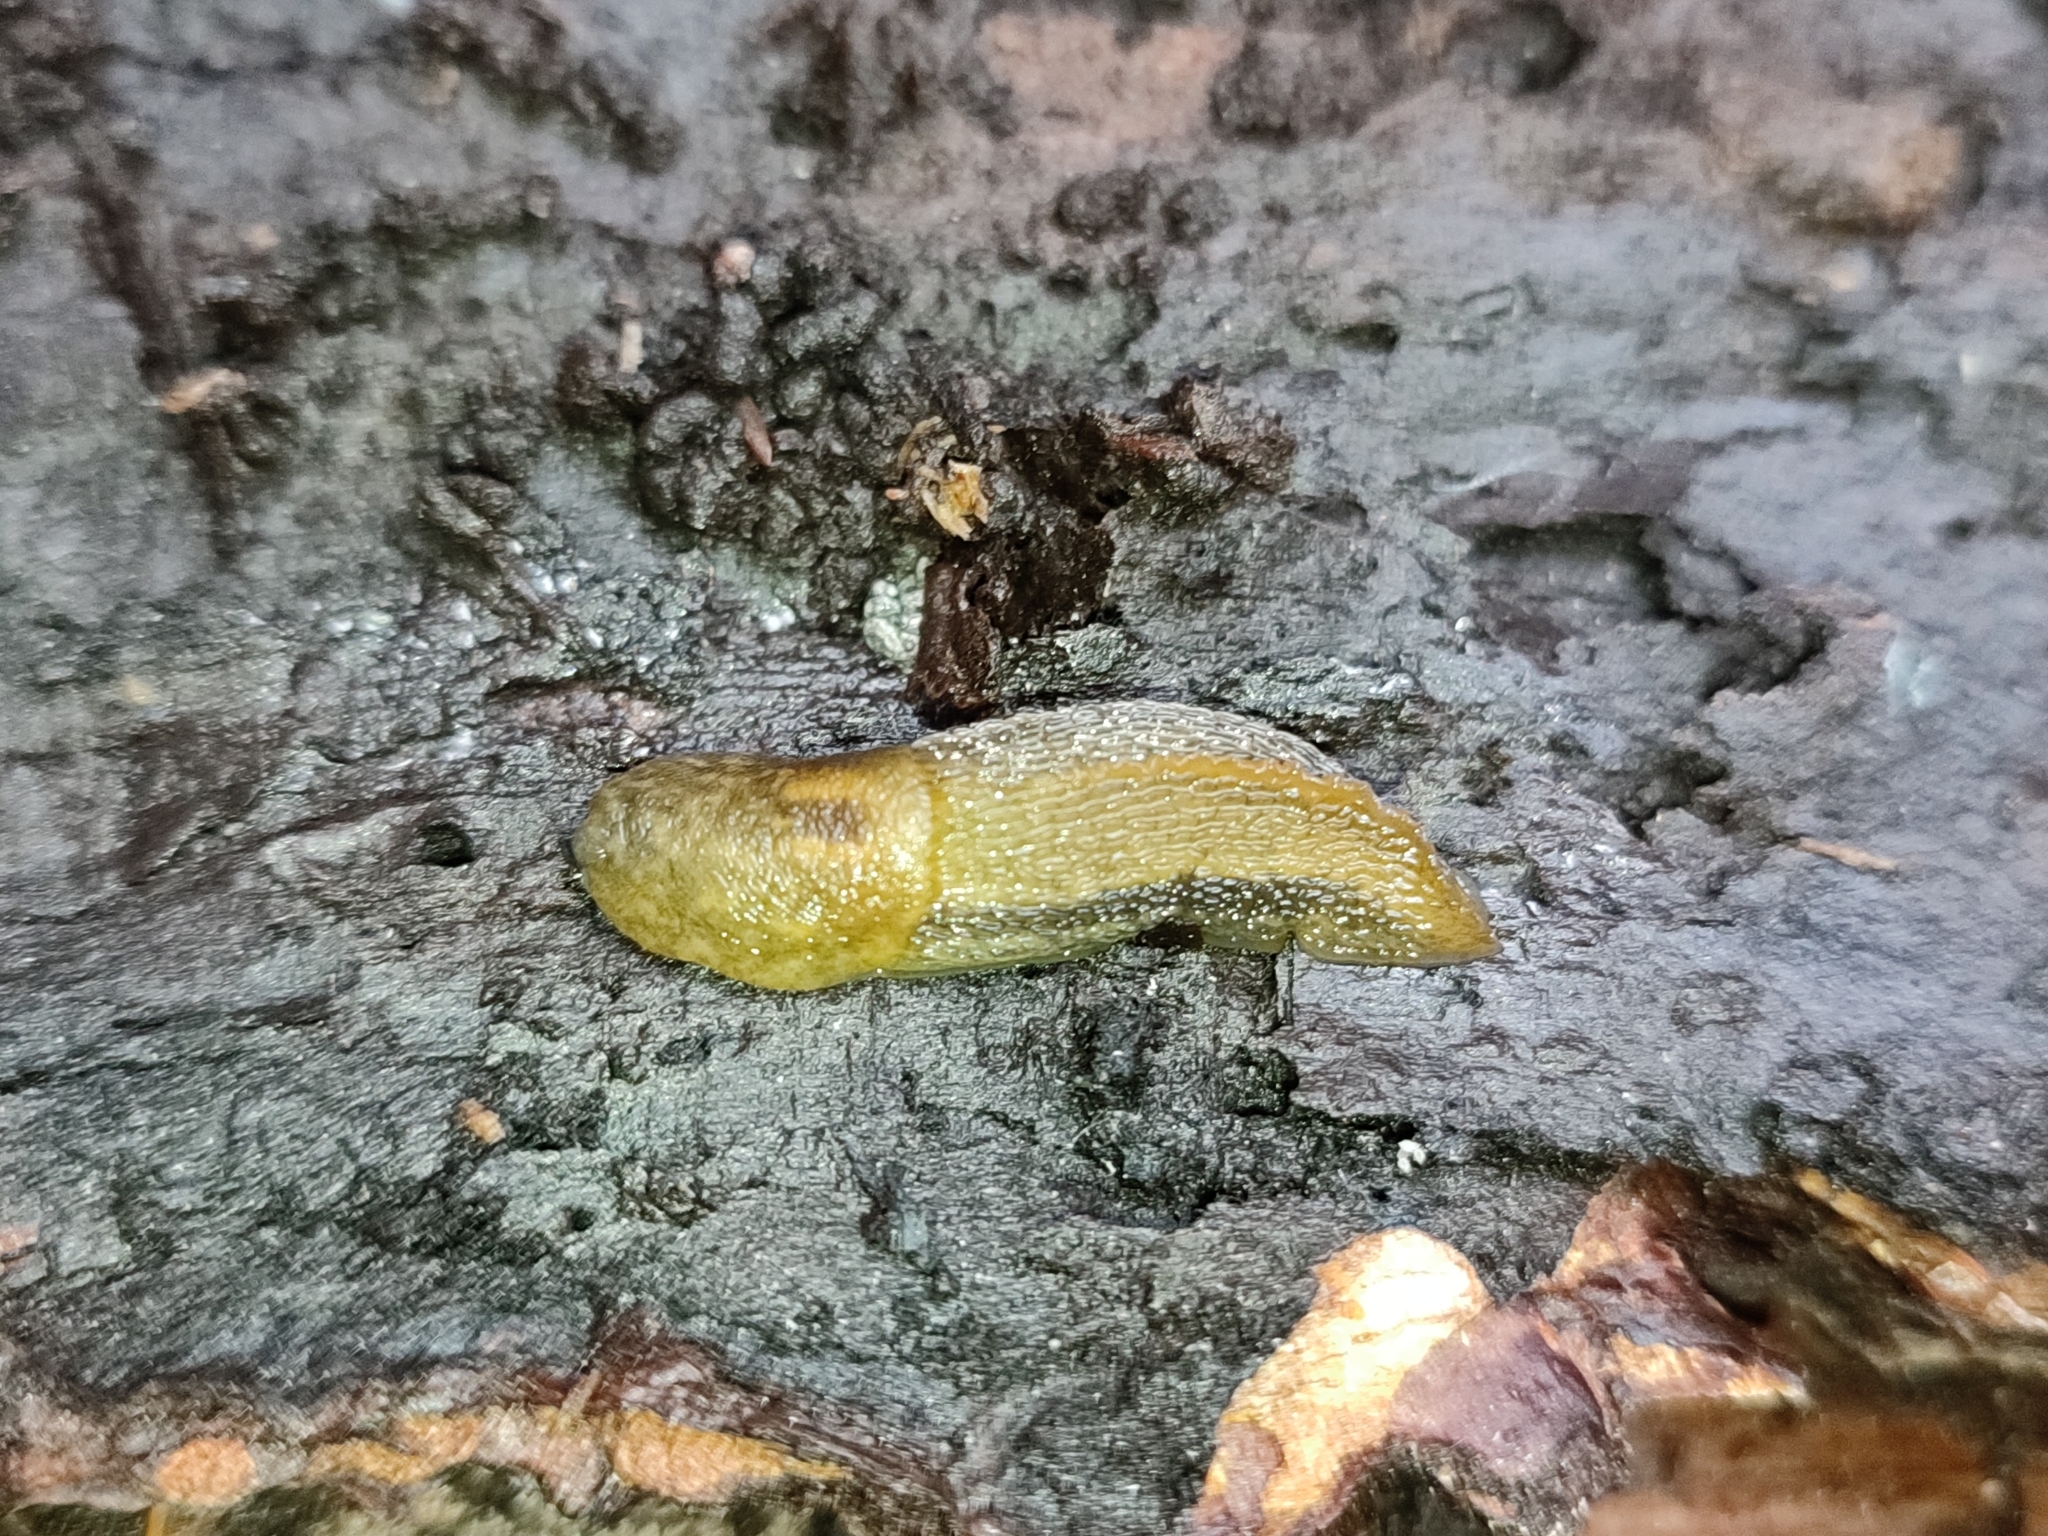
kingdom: Animalia
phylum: Mollusca
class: Gastropoda
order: Stylommatophora
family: Limacidae
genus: Bielzia
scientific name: Bielzia coerulans
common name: Carpathian blue slug
